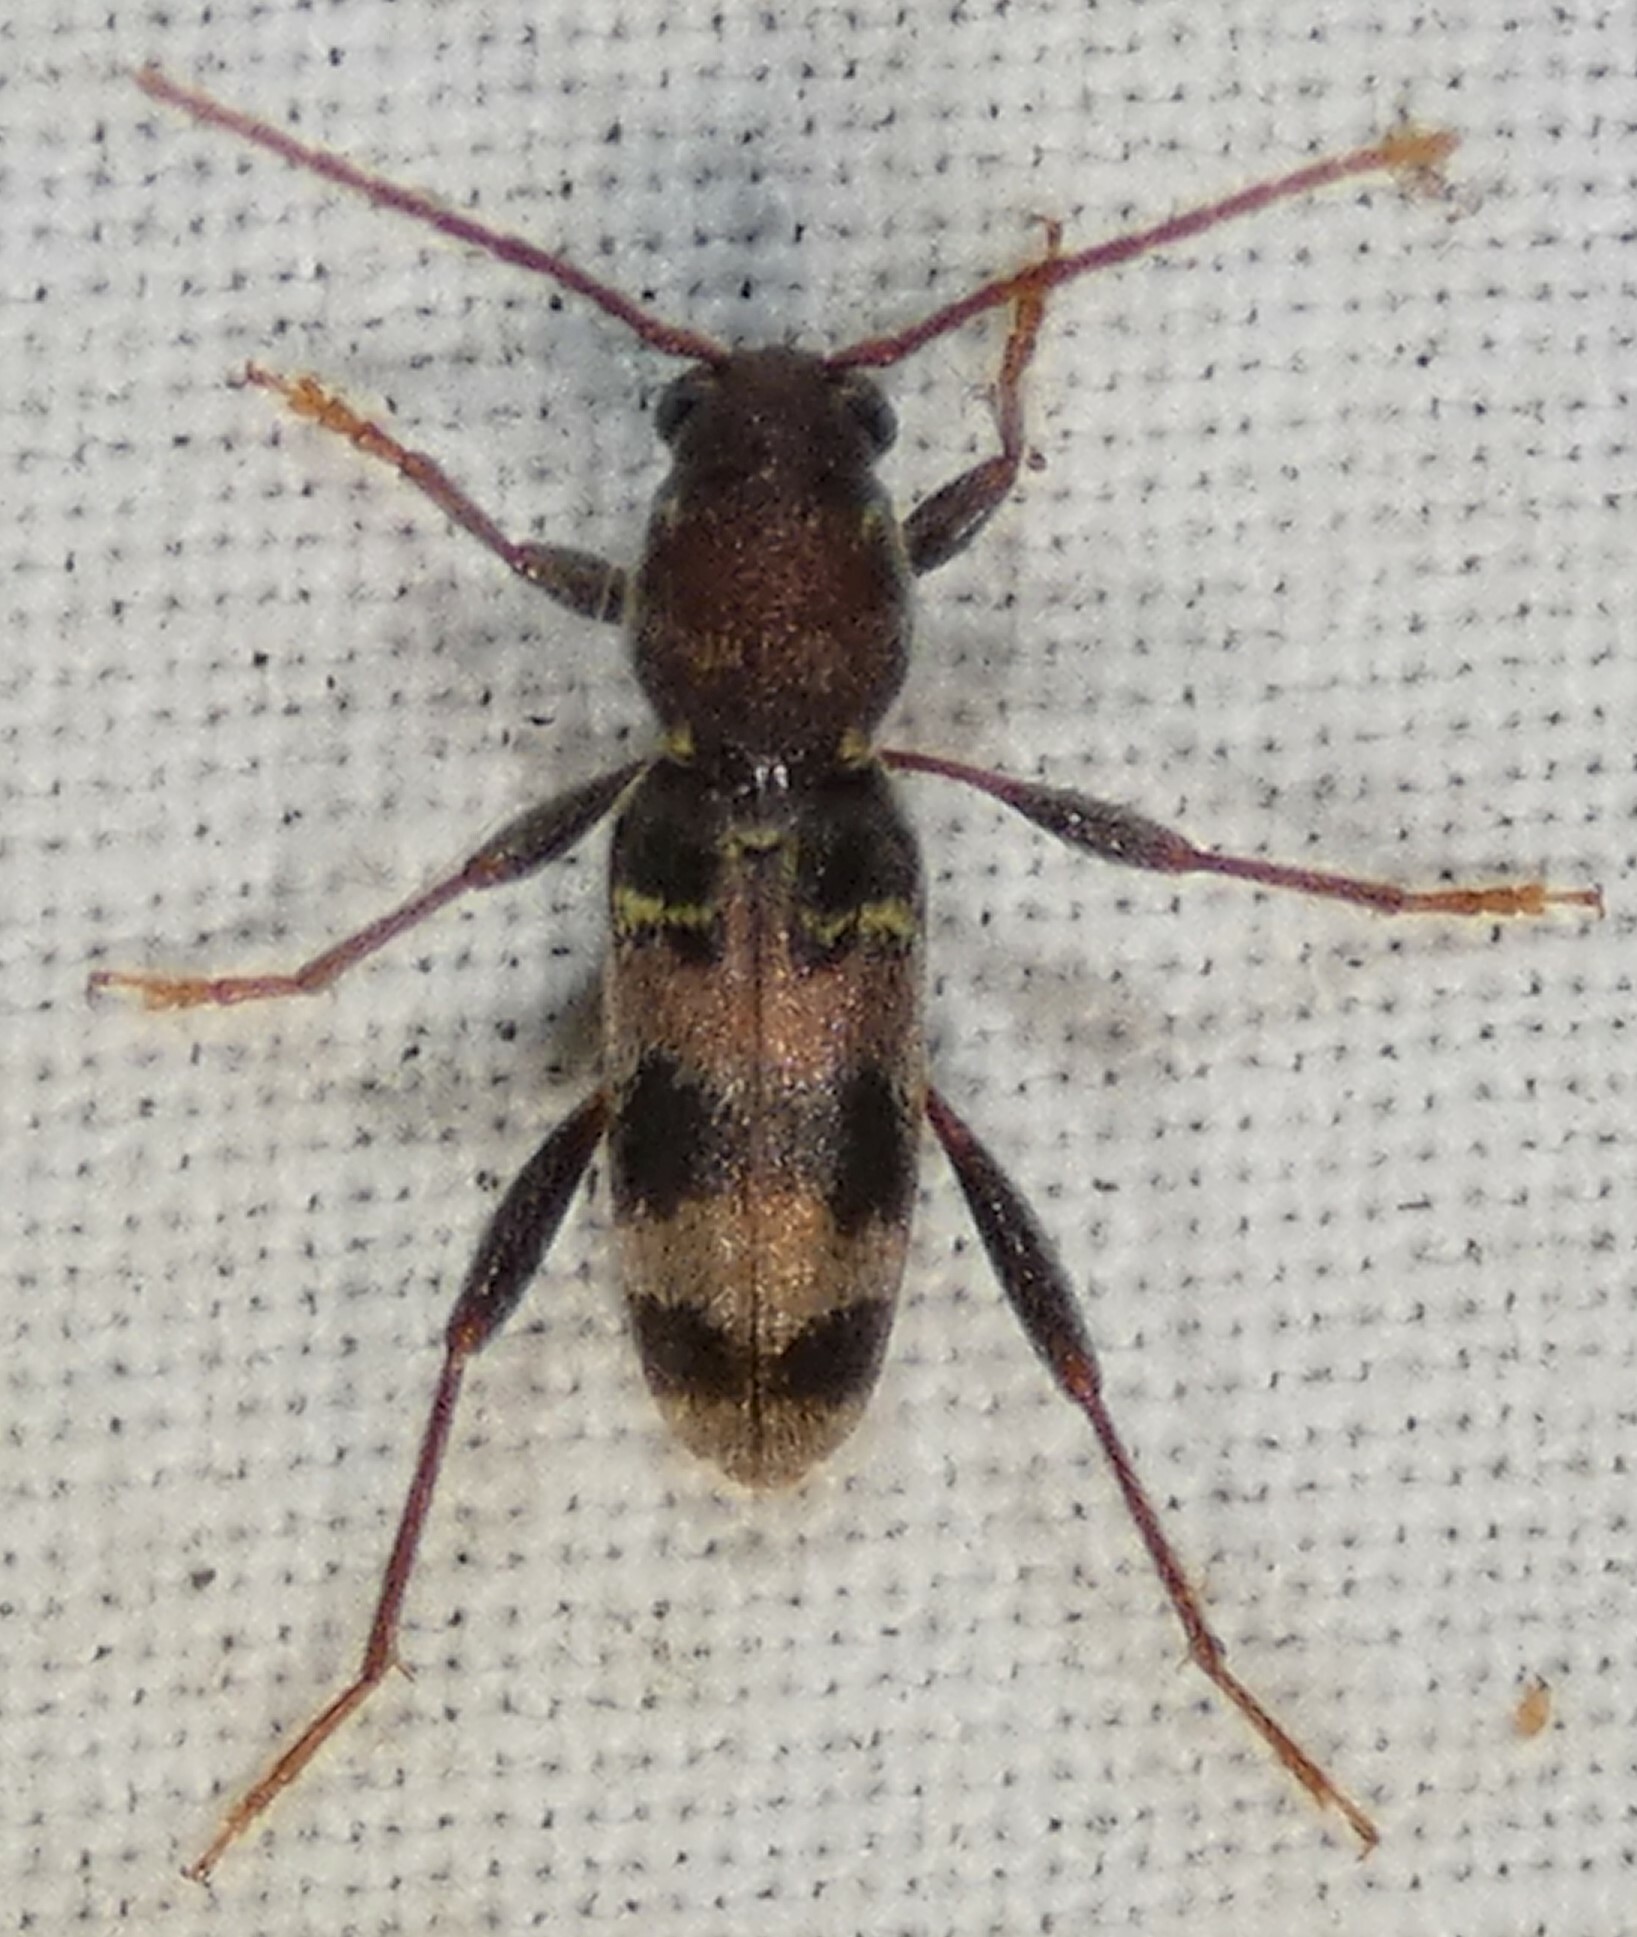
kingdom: Animalia
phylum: Arthropoda
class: Insecta
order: Coleoptera
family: Cerambycidae
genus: Xylotrechus
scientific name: Xylotrechus colonus
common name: Long-horned beetle
